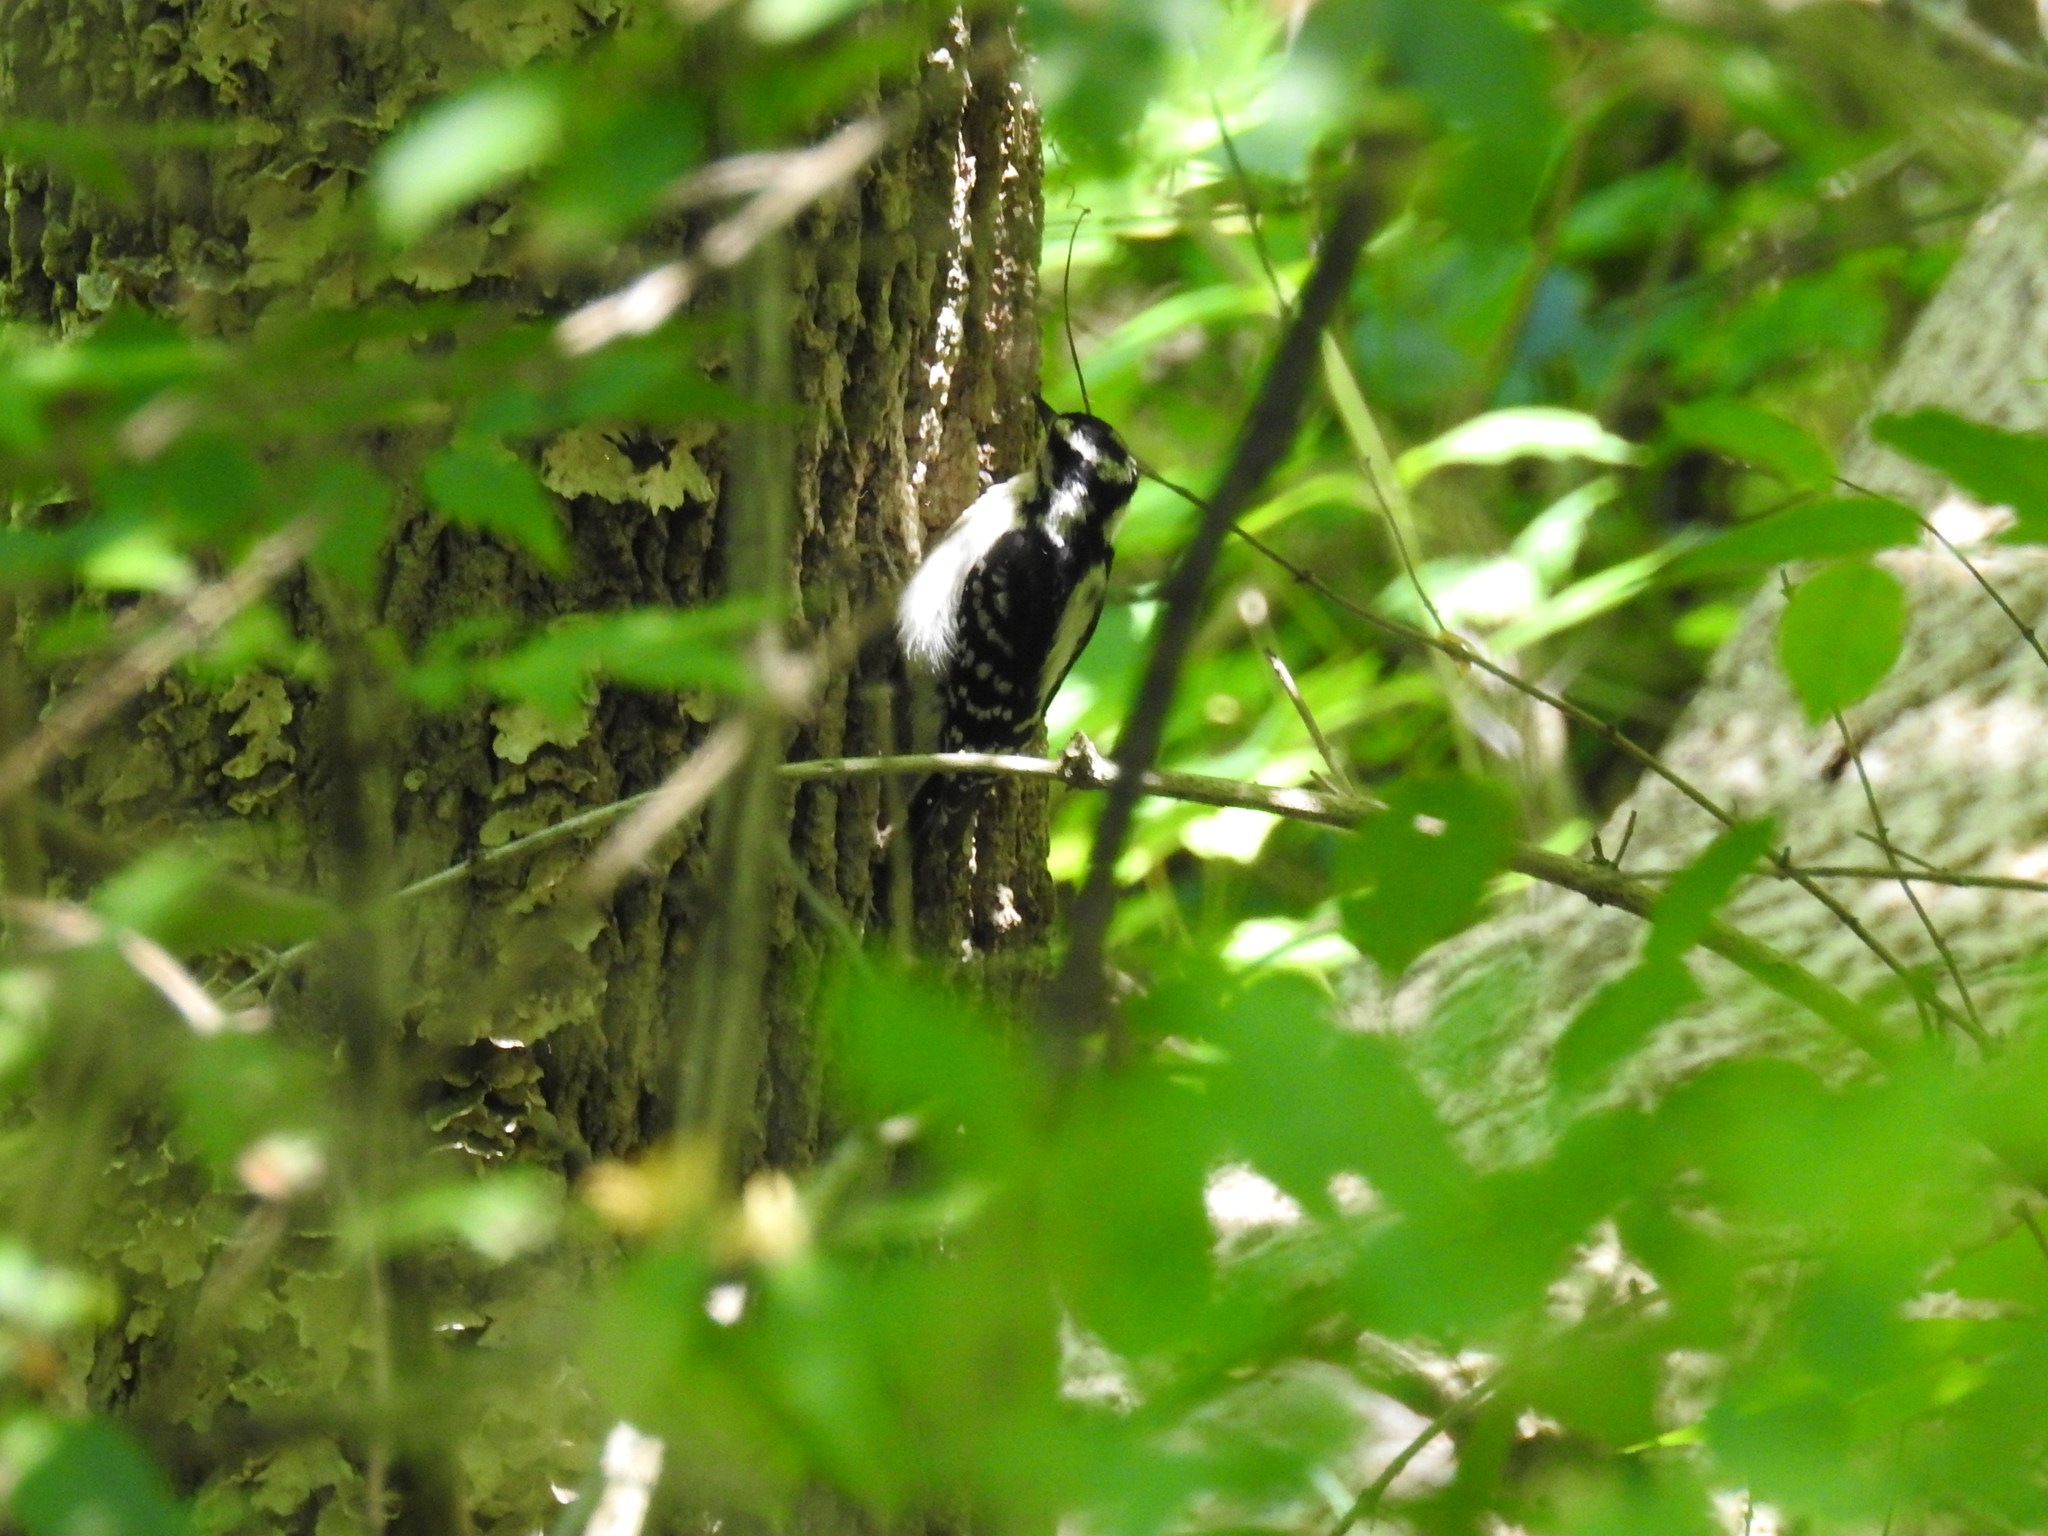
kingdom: Animalia
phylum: Chordata
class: Aves
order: Piciformes
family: Picidae
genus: Leuconotopicus
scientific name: Leuconotopicus villosus
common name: Hairy woodpecker
